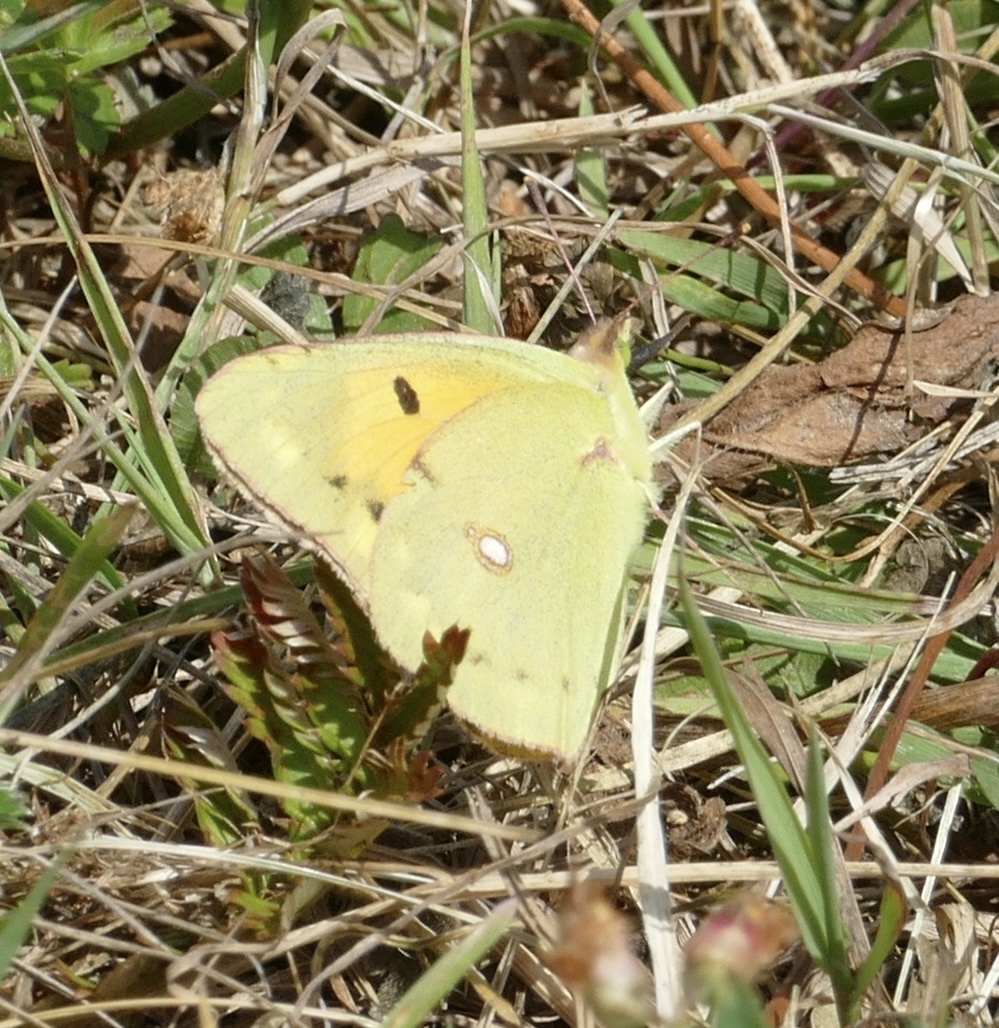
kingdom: Animalia
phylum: Arthropoda
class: Insecta
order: Lepidoptera
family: Pieridae
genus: Colias
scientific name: Colias croceus
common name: Clouded yellow
